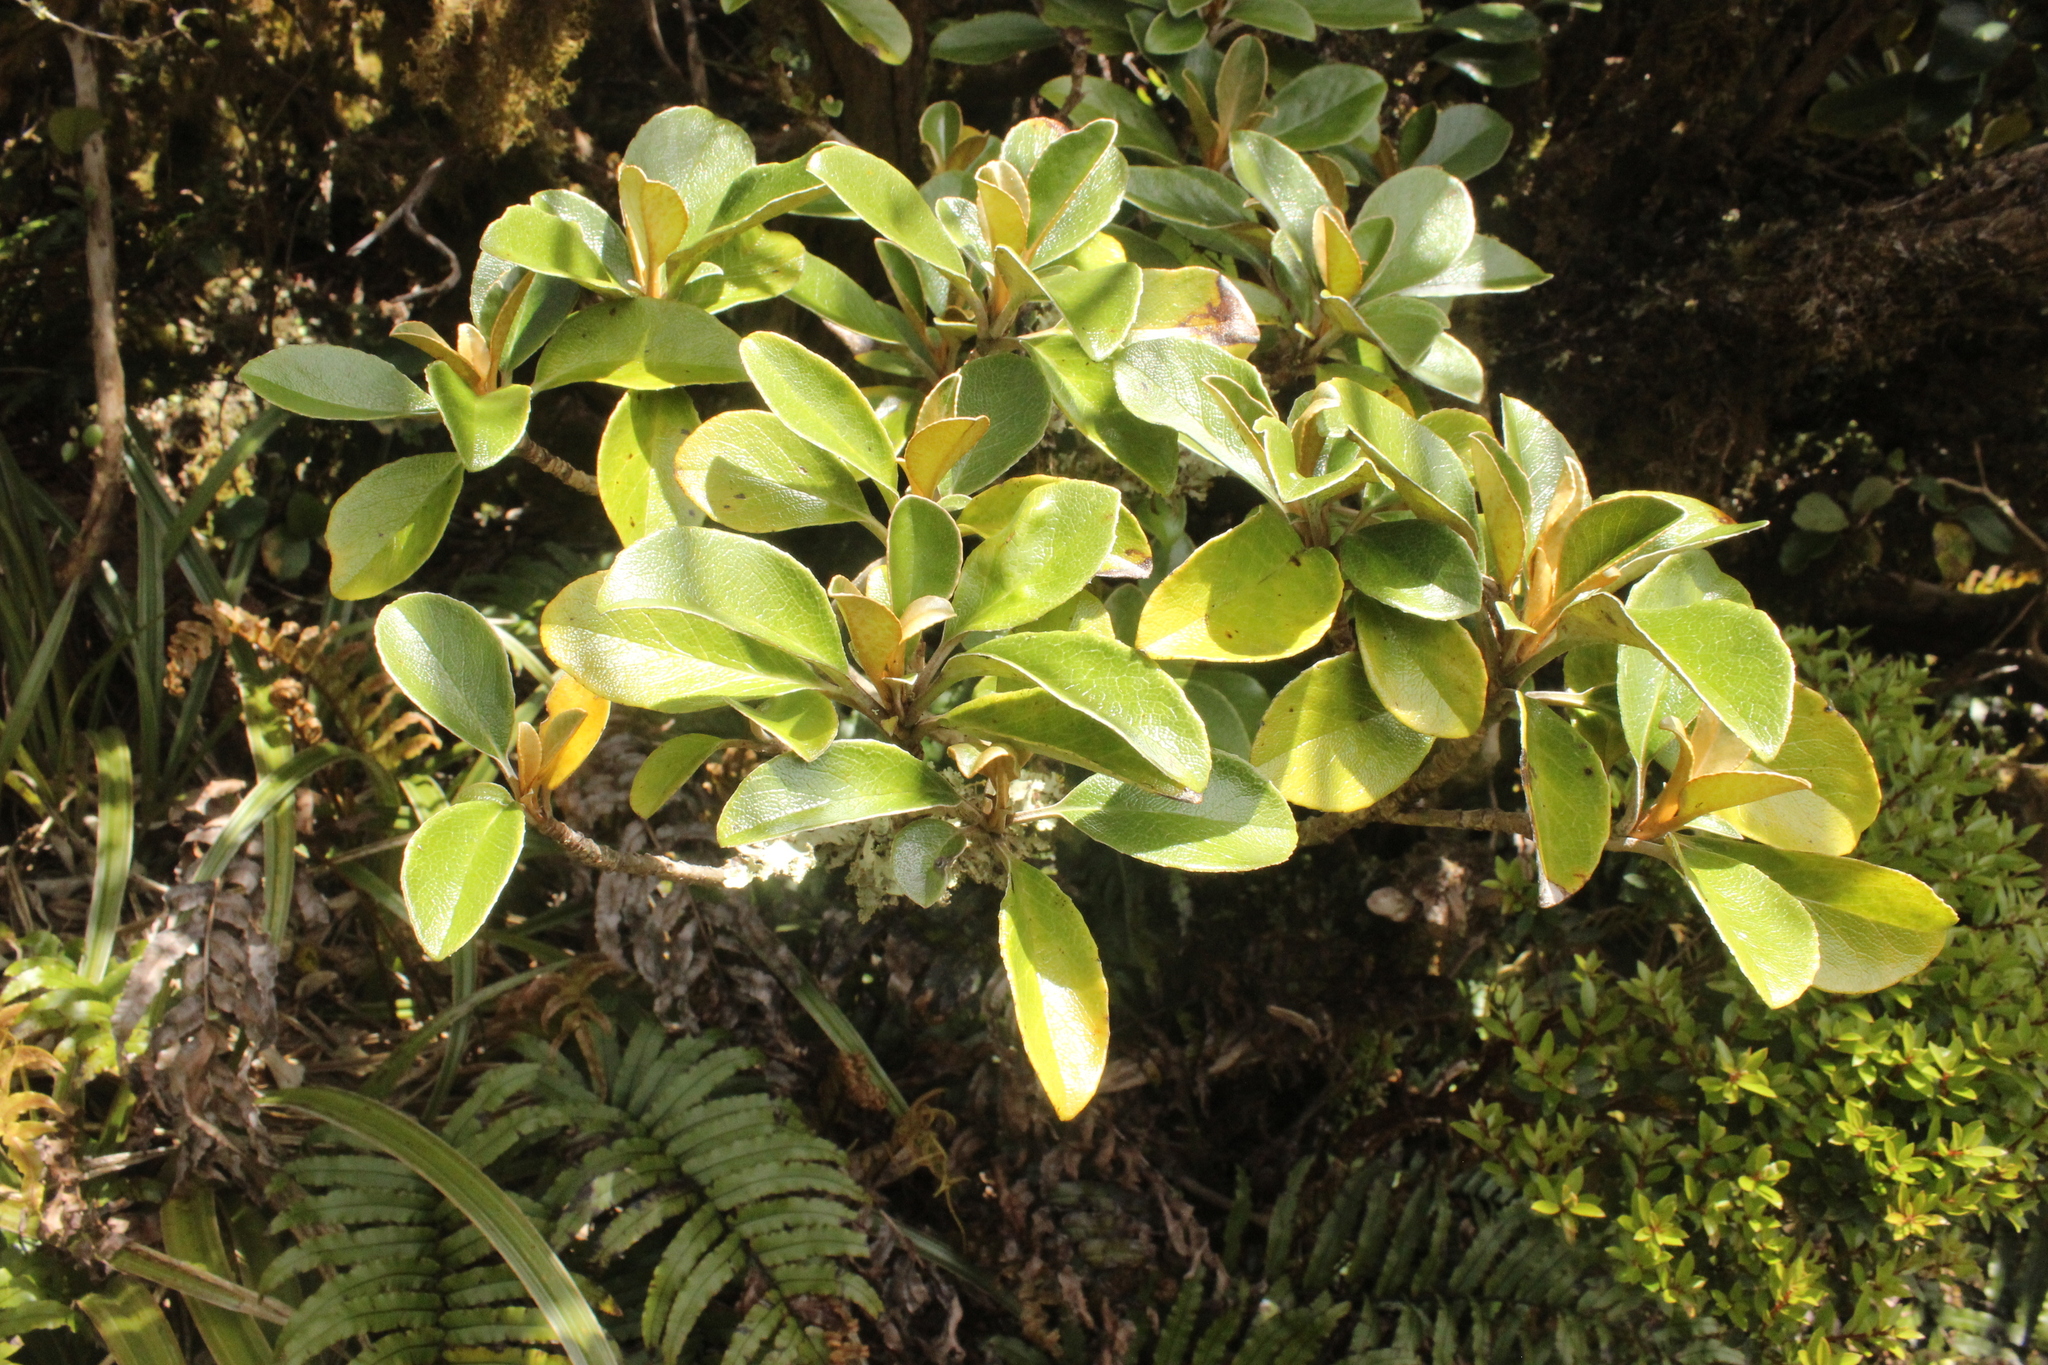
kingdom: Plantae
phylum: Tracheophyta
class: Magnoliopsida
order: Asterales
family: Asteraceae
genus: Brachyglottis
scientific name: Brachyglottis elaeagnifolia
